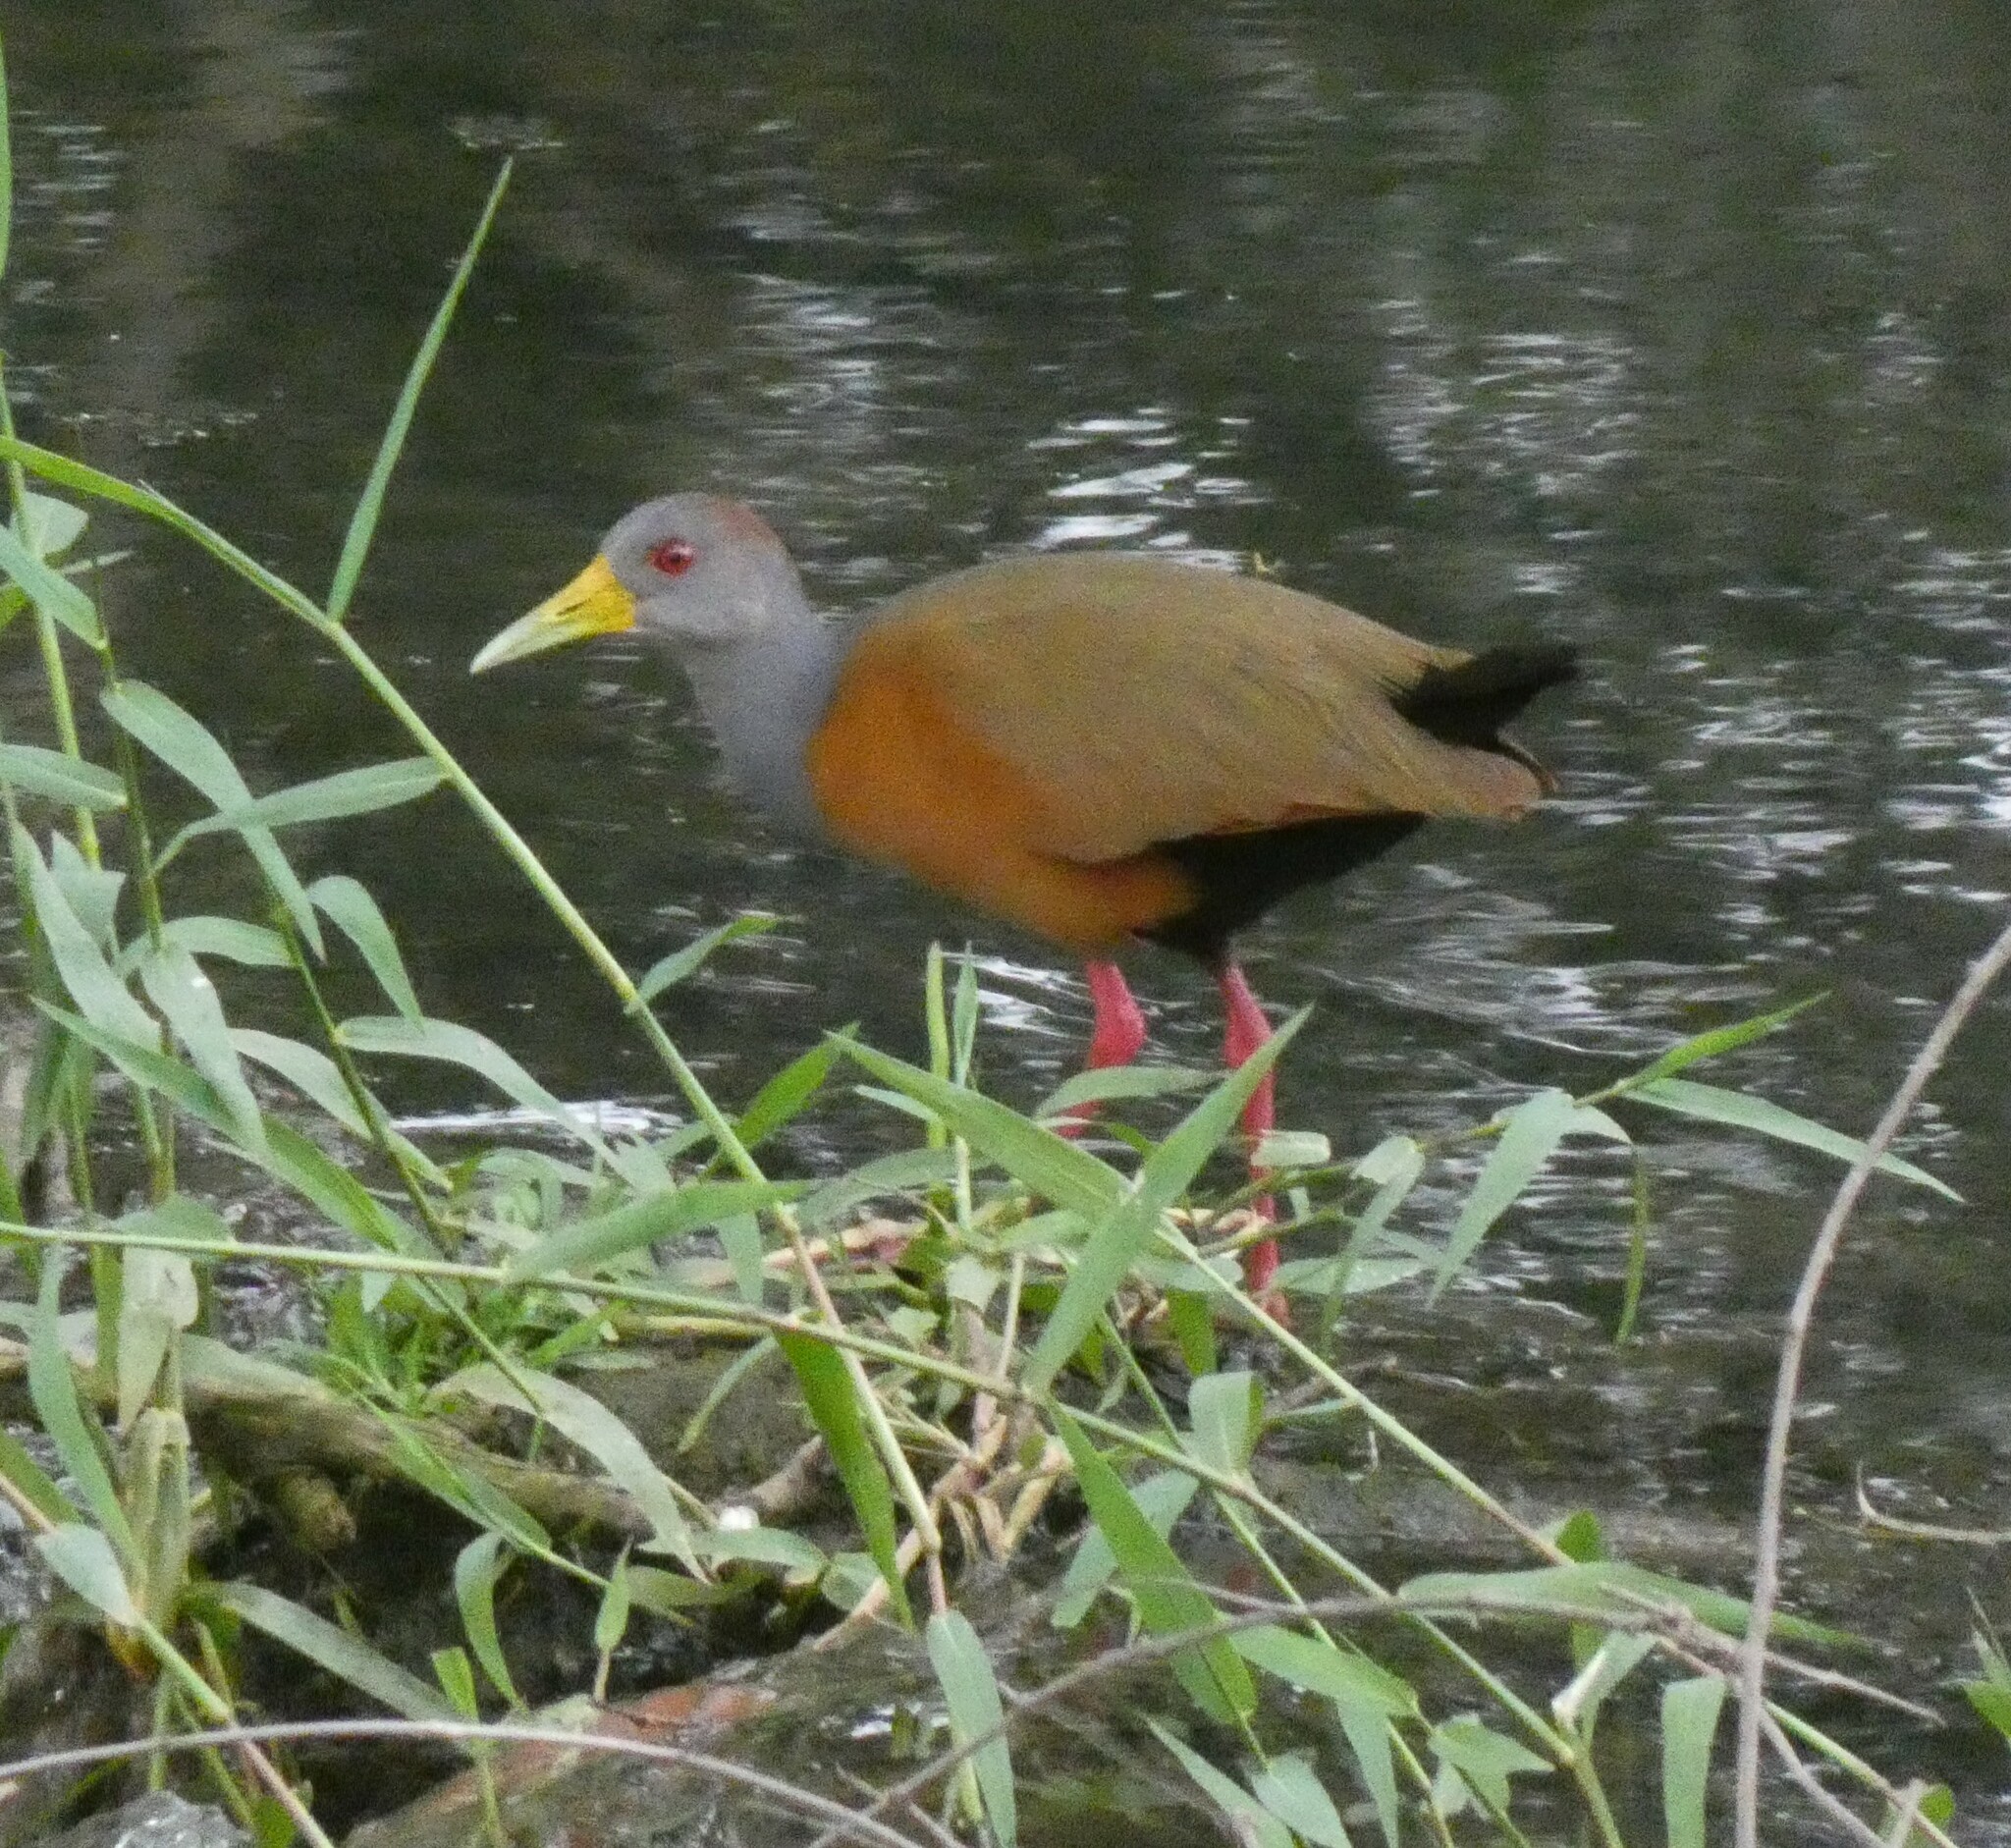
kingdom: Animalia
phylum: Chordata
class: Aves
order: Gruiformes
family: Rallidae
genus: Aramides
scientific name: Aramides cajanea
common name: Gray-necked wood-rail
